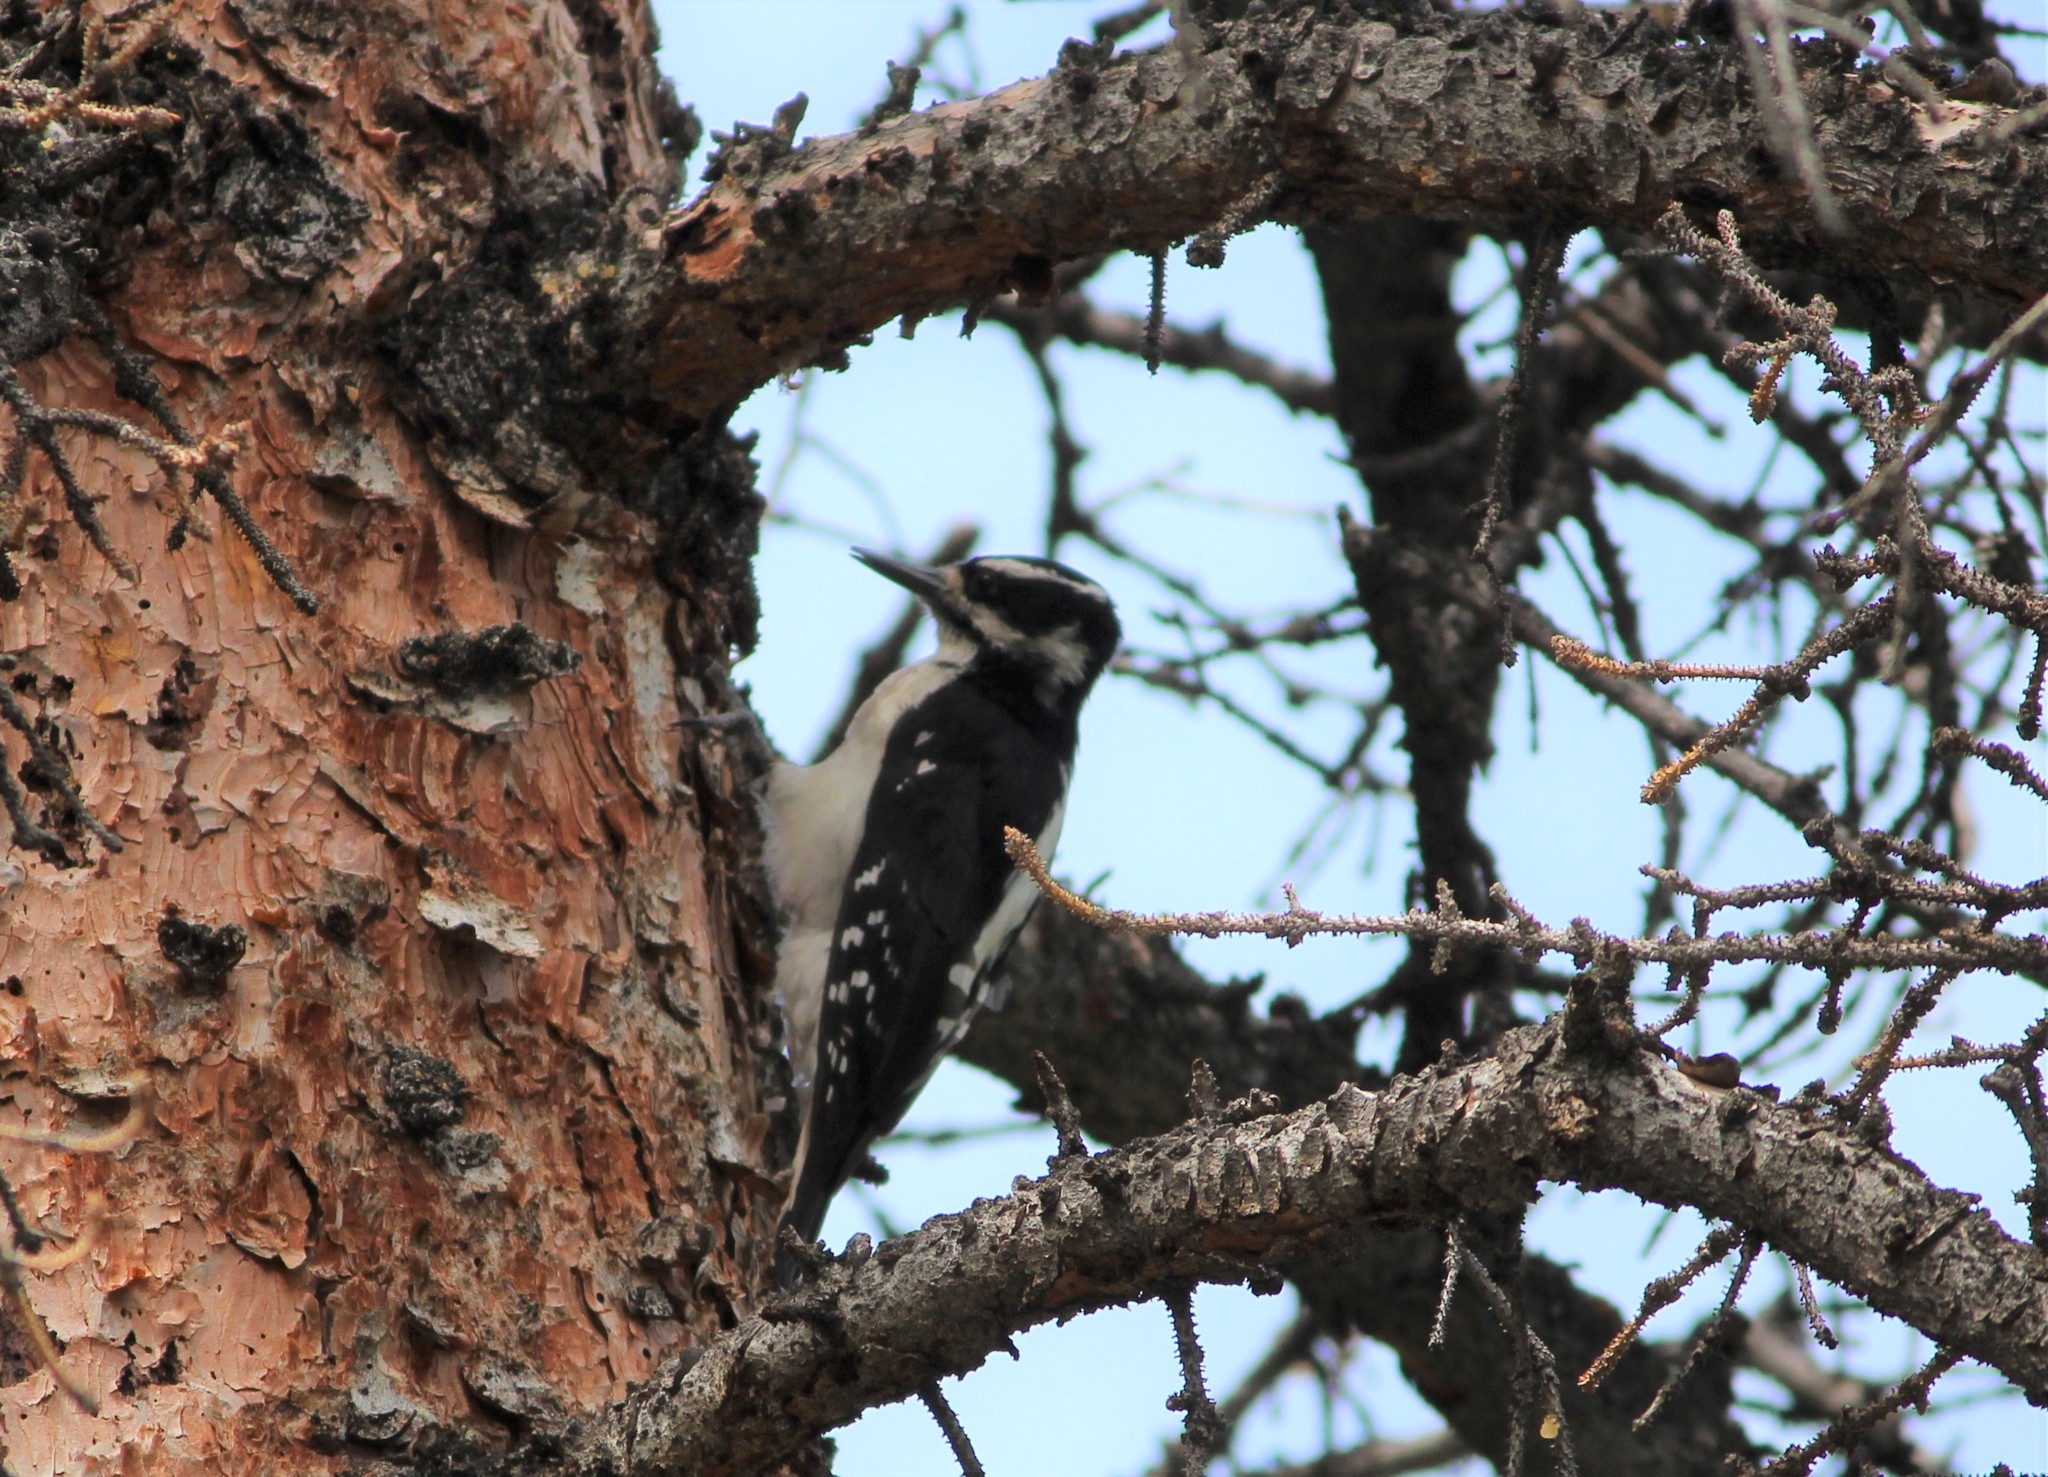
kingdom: Animalia
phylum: Chordata
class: Aves
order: Piciformes
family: Picidae
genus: Leuconotopicus
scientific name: Leuconotopicus villosus
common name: Hairy woodpecker
